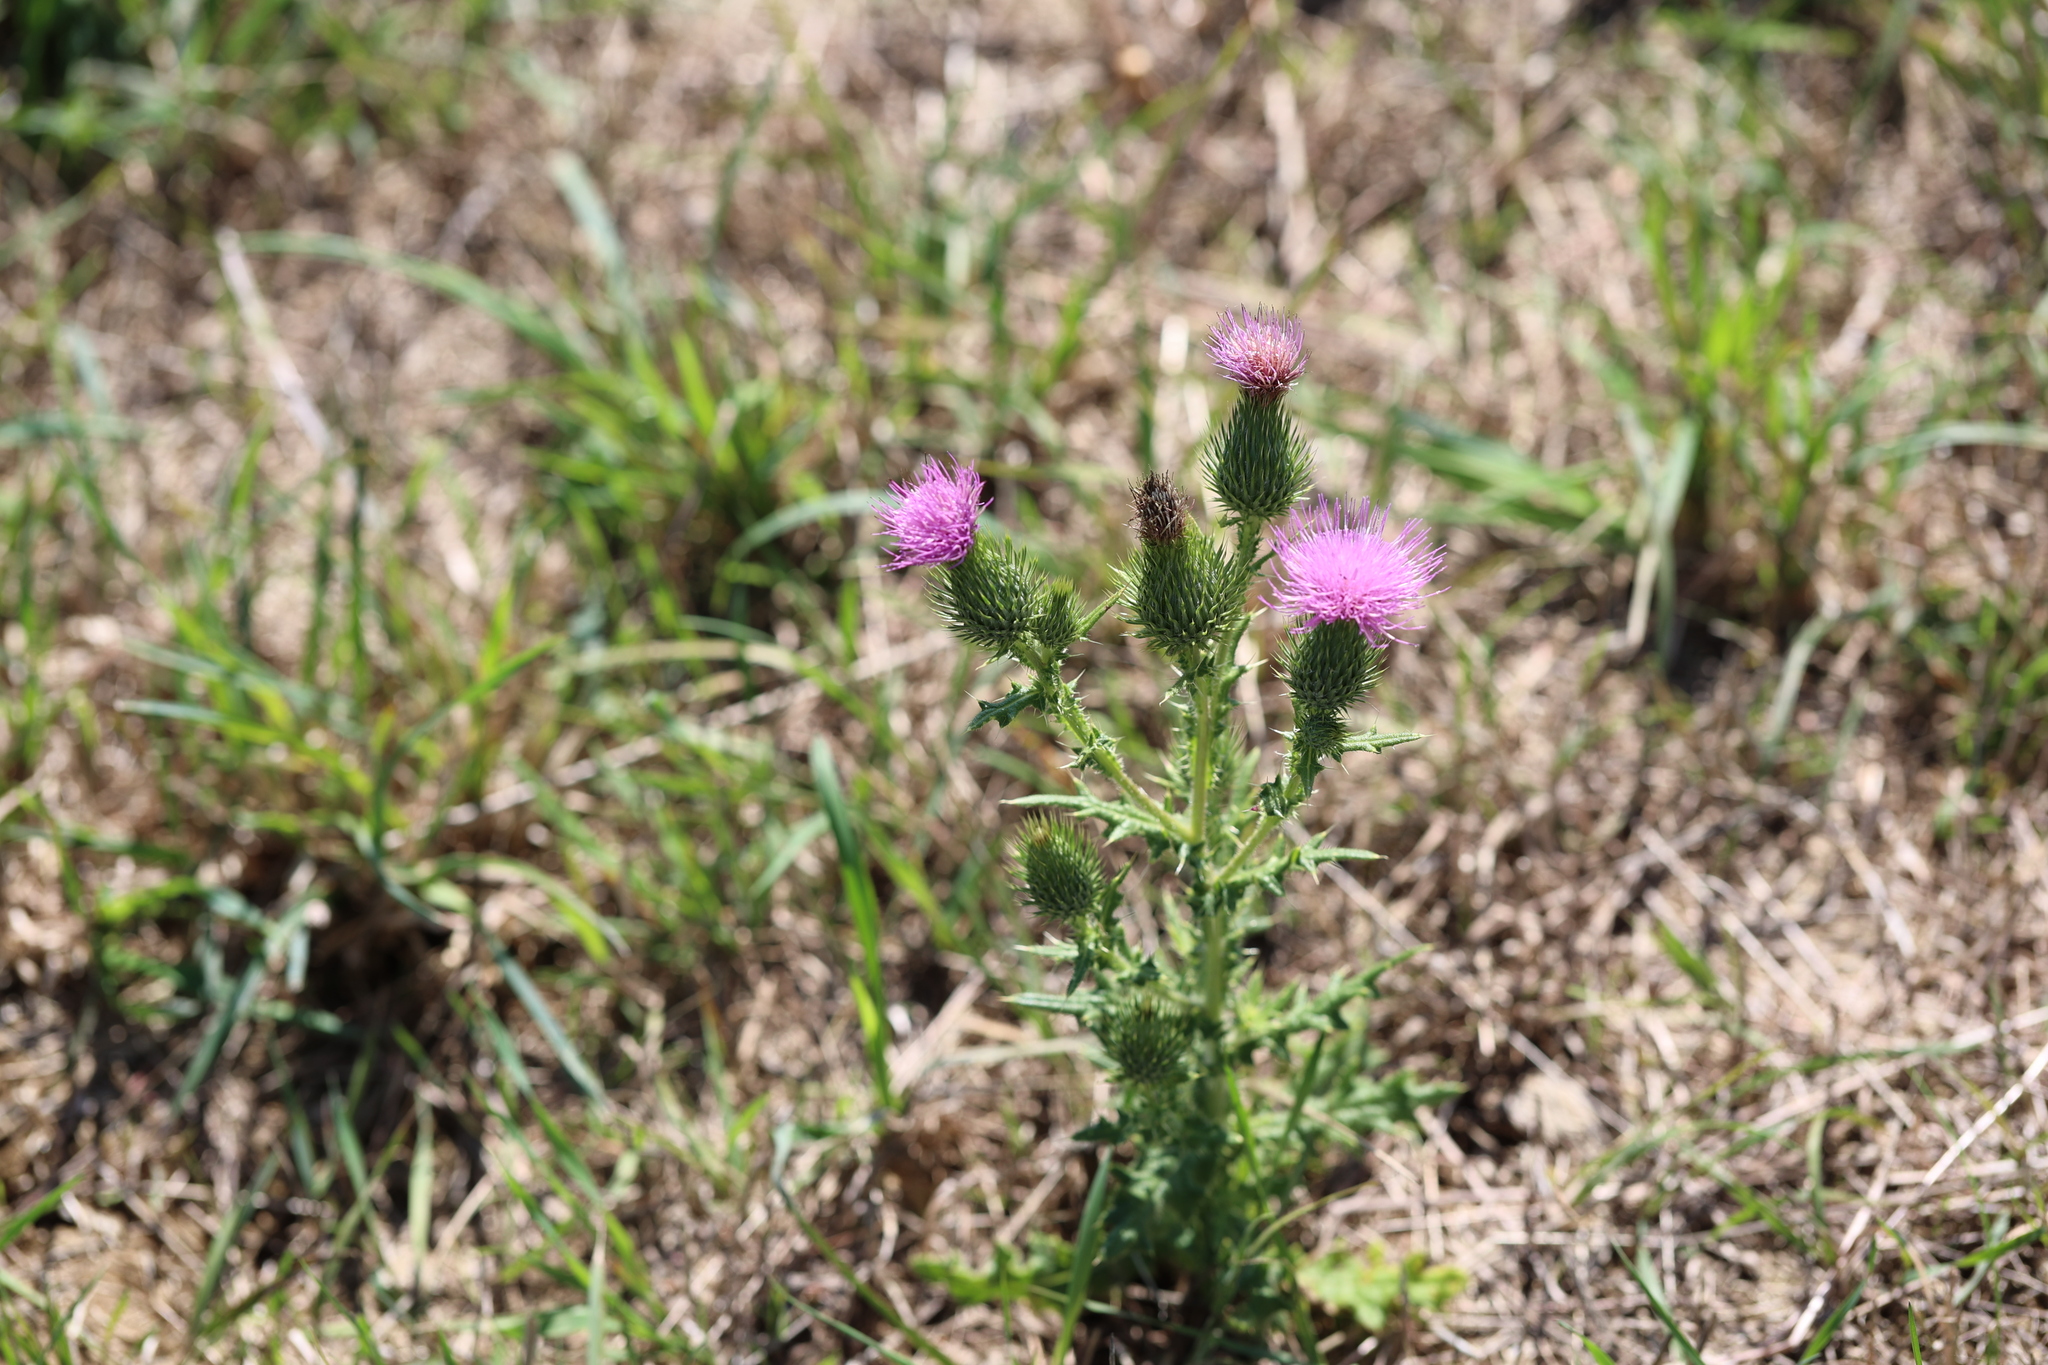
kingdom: Plantae
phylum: Tracheophyta
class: Magnoliopsida
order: Asterales
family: Asteraceae
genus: Cirsium
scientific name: Cirsium vulgare
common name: Bull thistle
